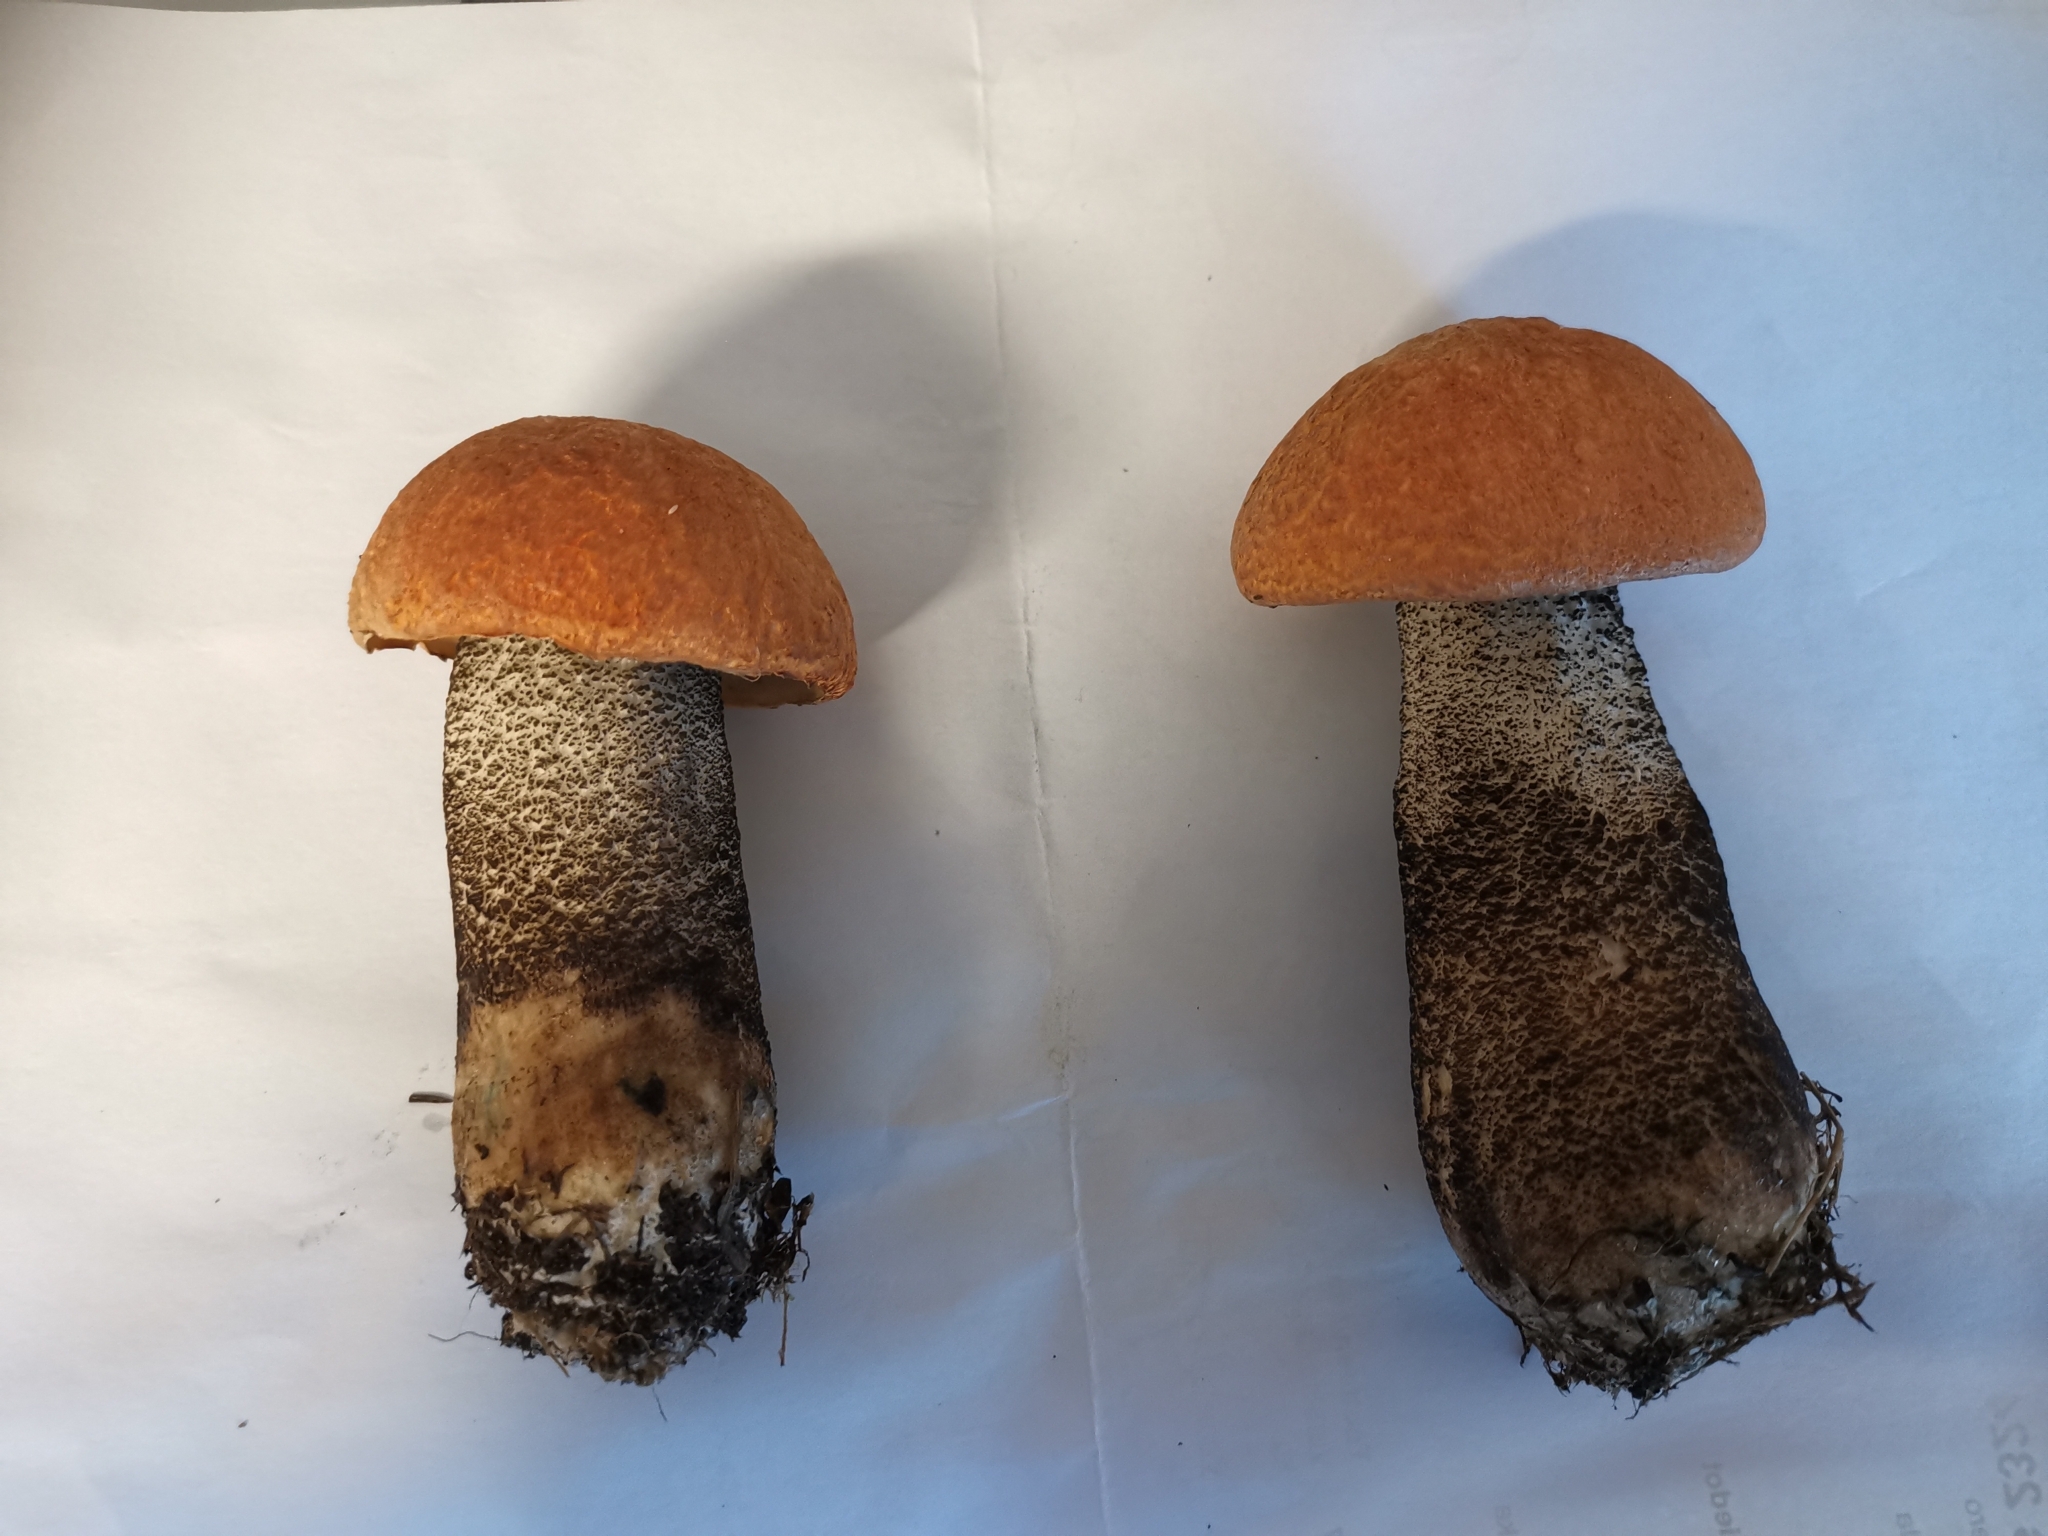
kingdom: Fungi
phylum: Basidiomycota
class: Agaricomycetes
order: Boletales
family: Boletaceae
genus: Leccinum
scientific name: Leccinum versipelle
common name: Orange birch bolete
